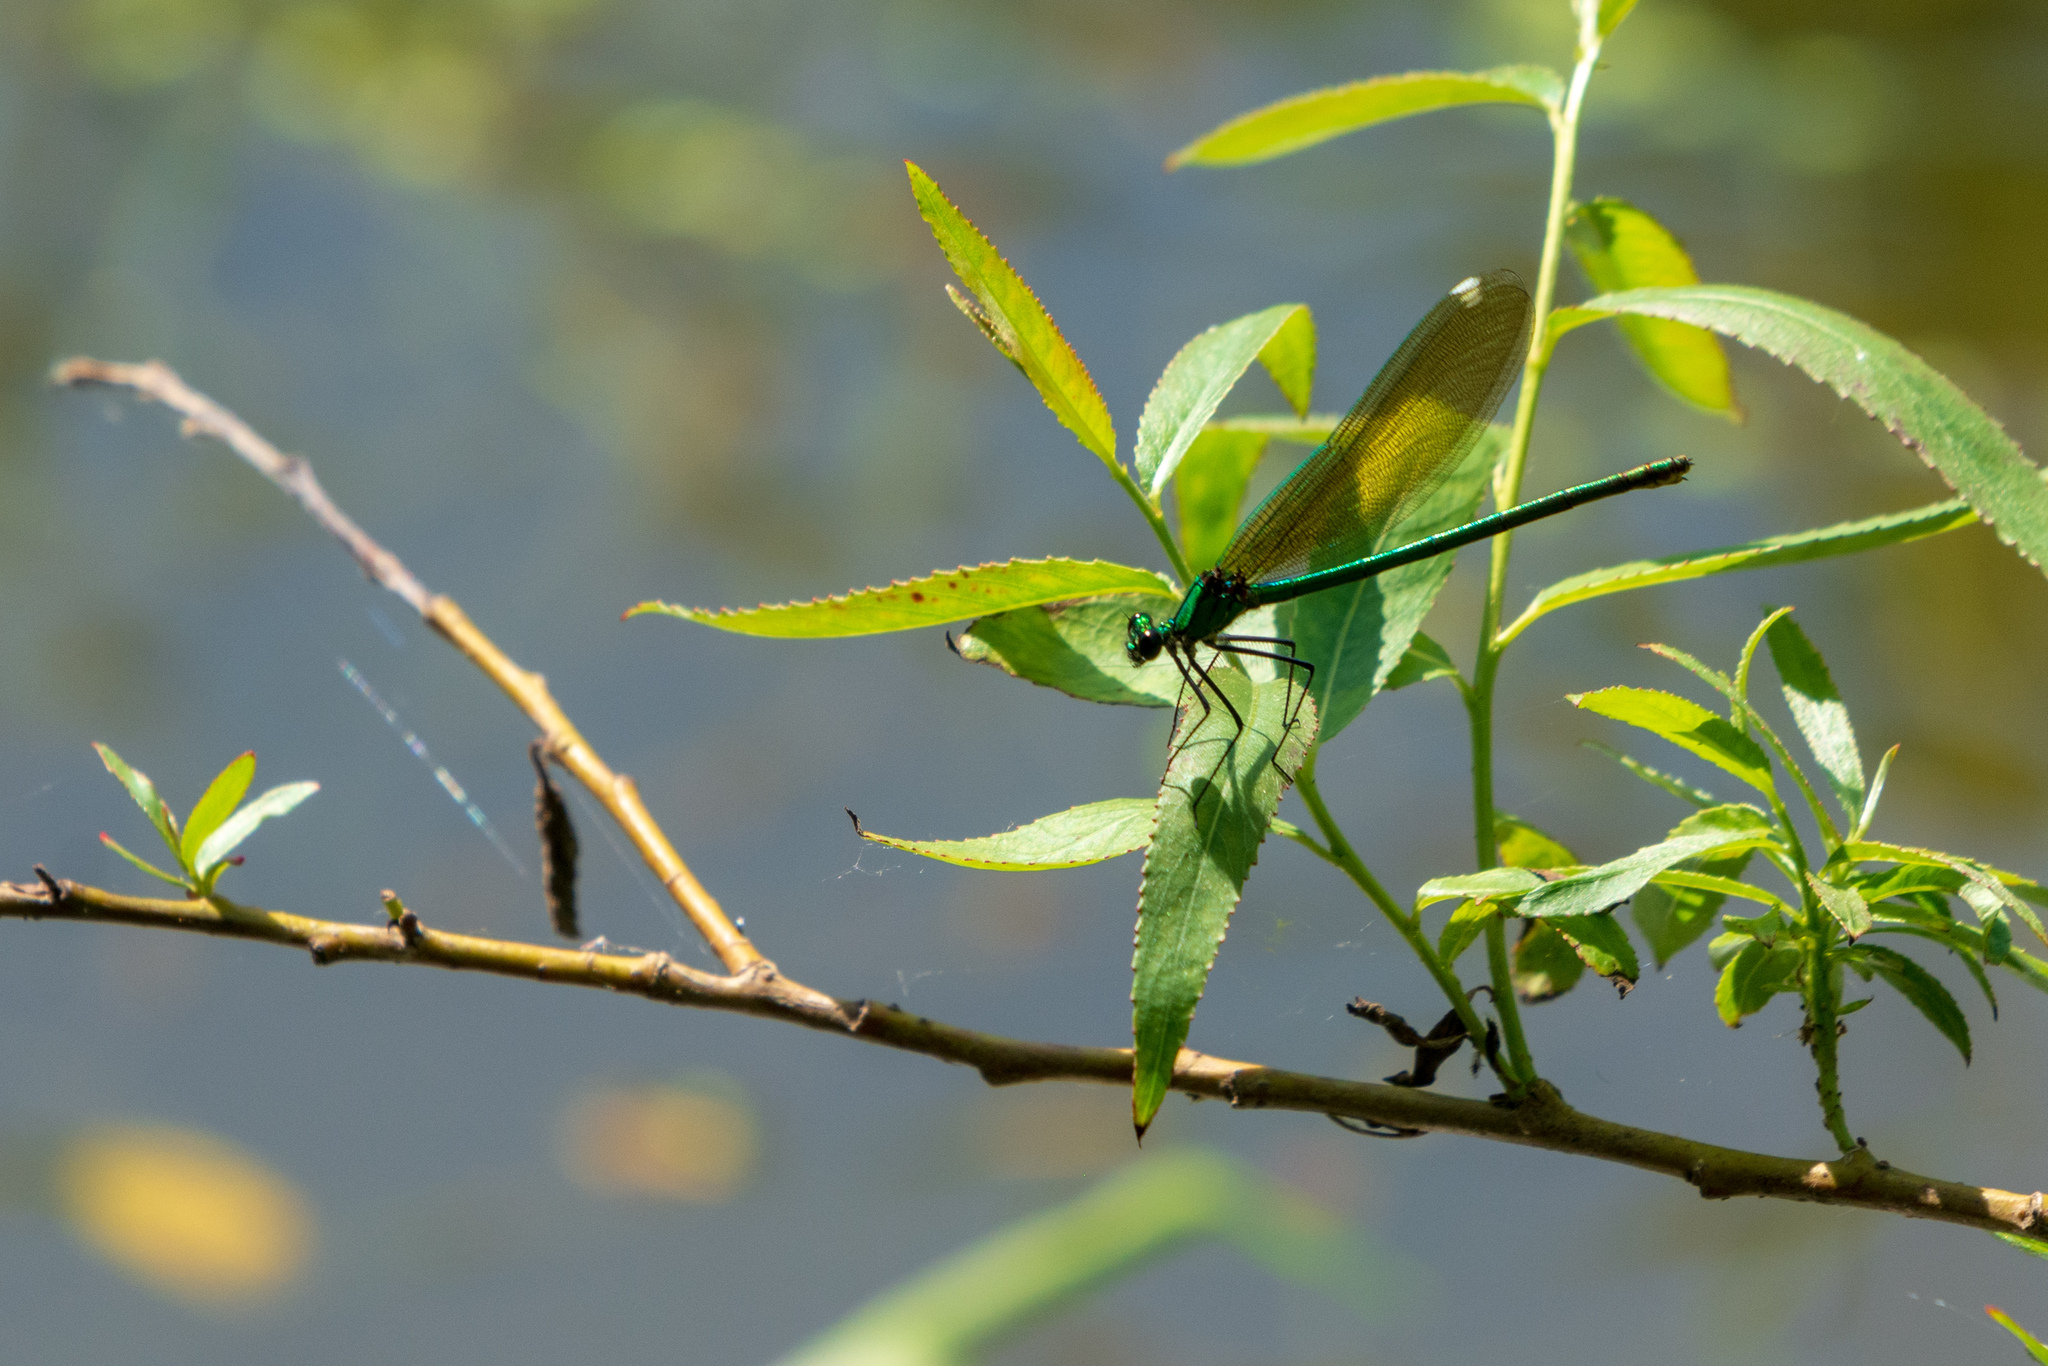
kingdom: Animalia
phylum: Arthropoda
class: Insecta
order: Odonata
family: Calopterygidae
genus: Calopteryx
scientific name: Calopteryx splendens
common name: Banded demoiselle
